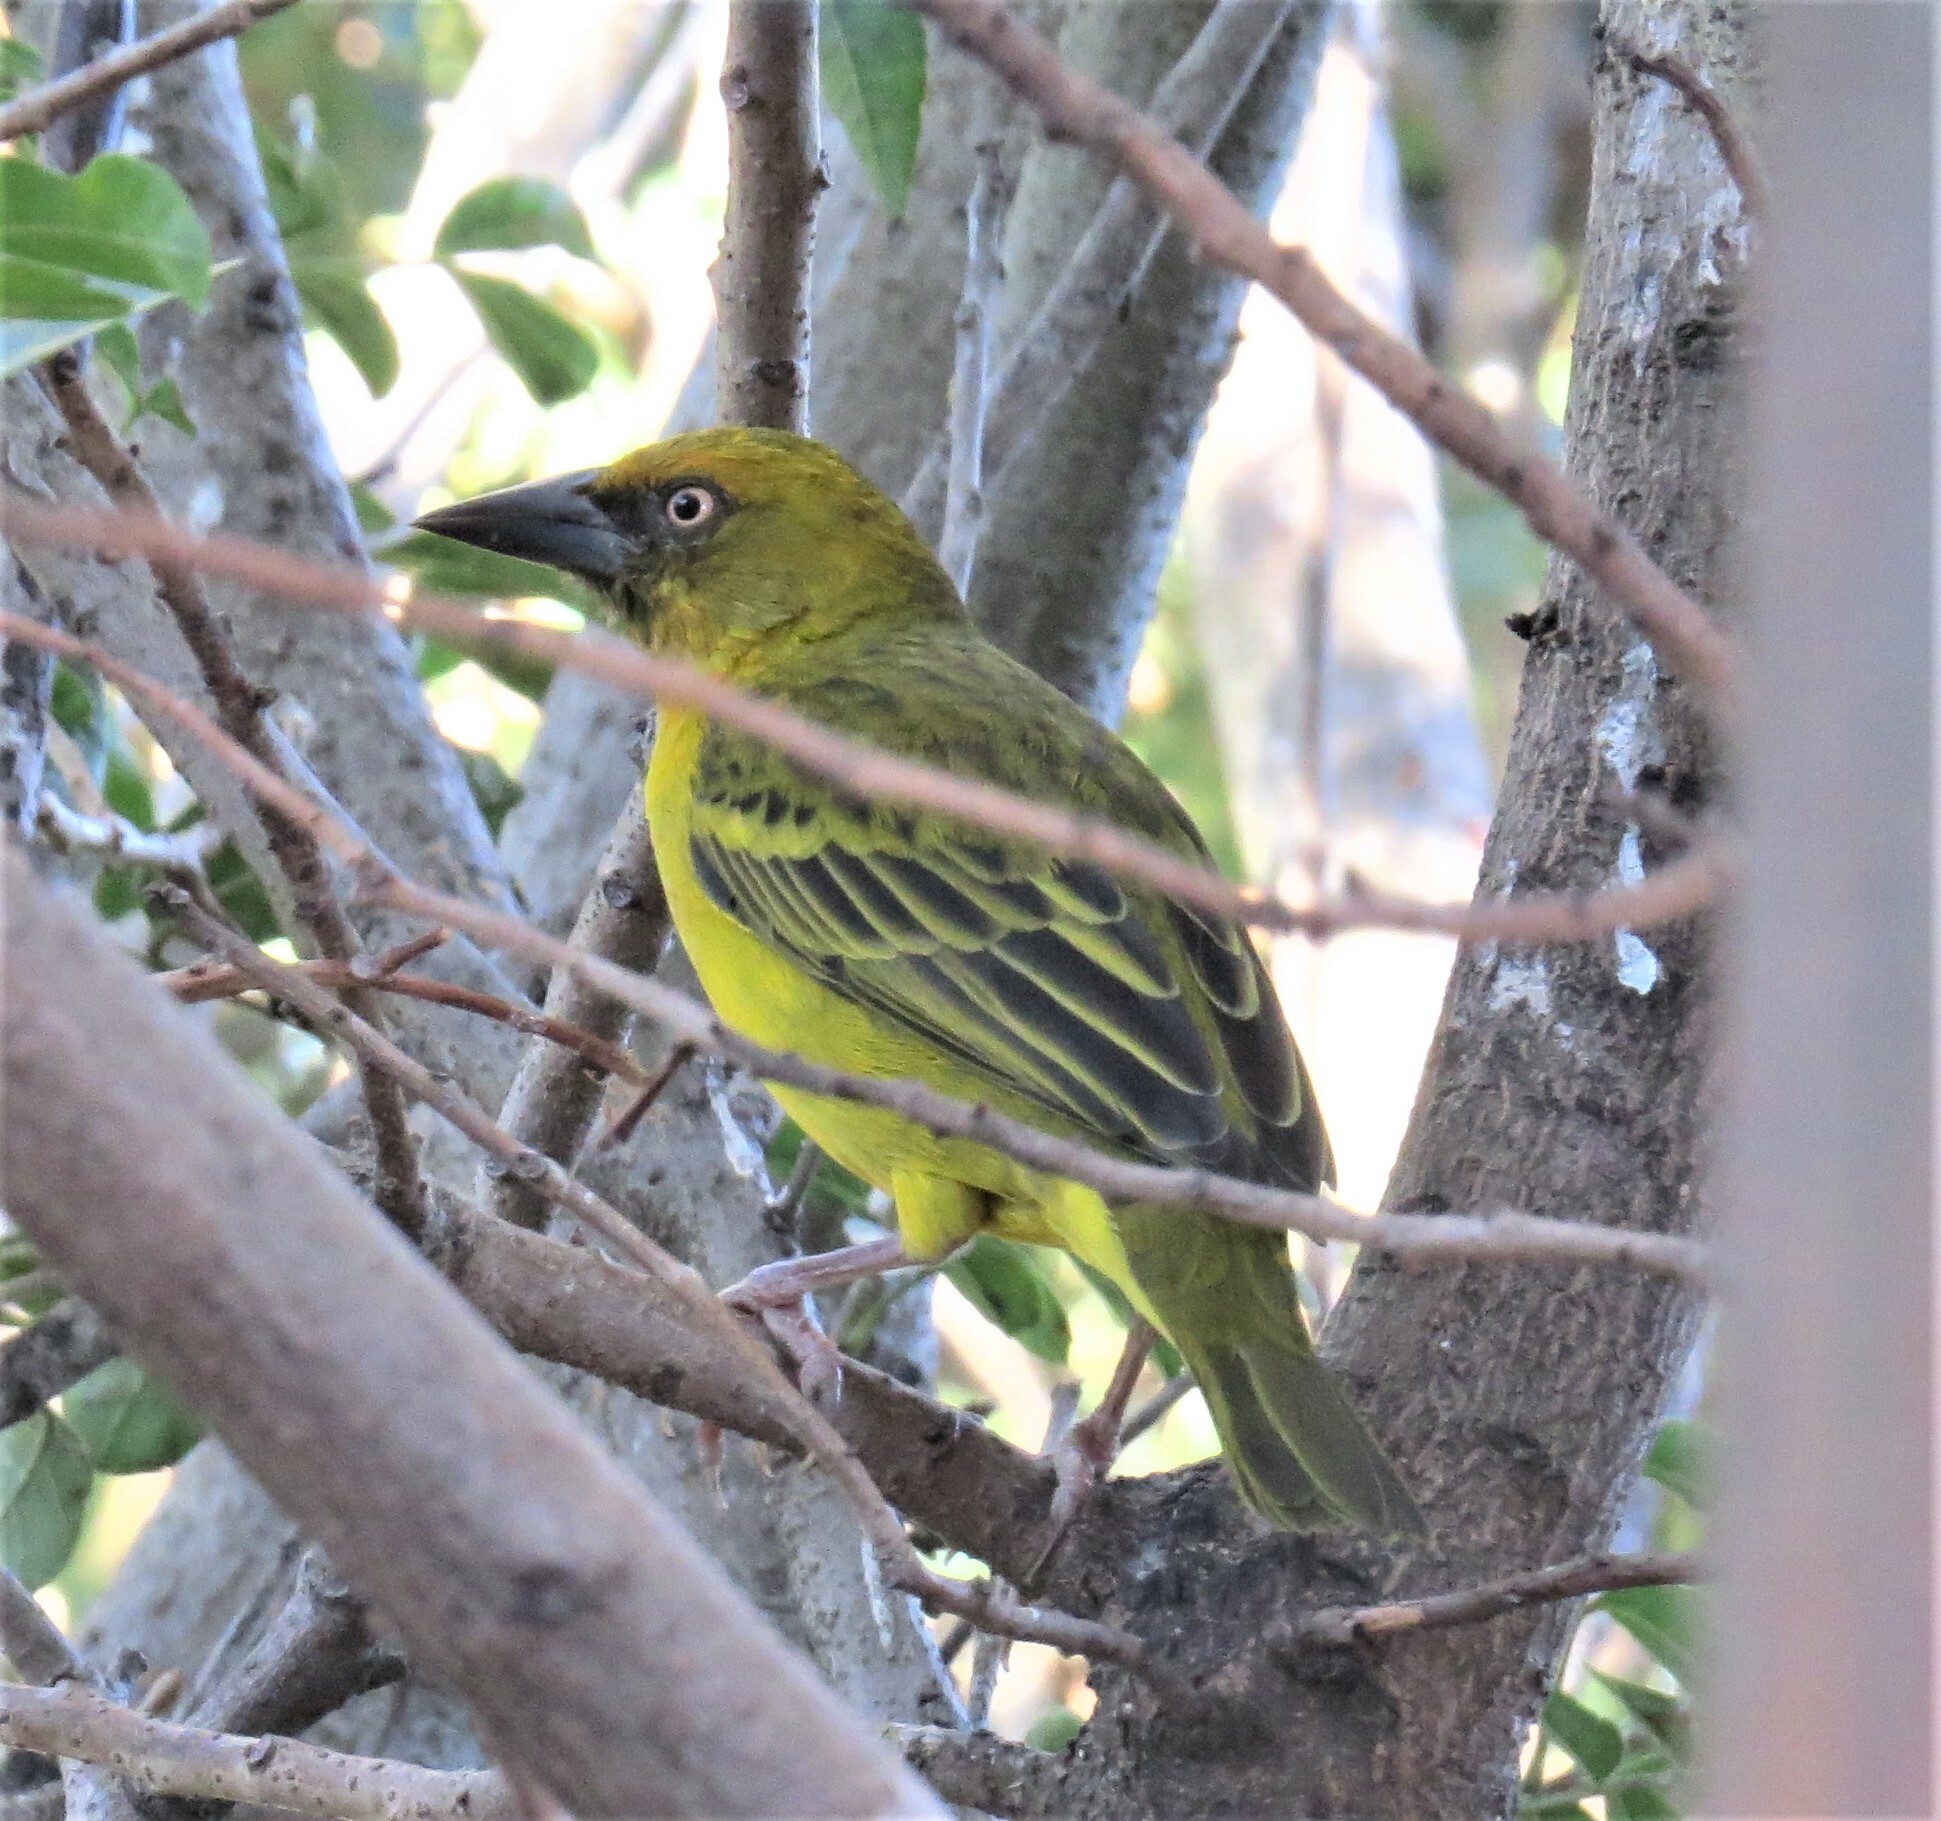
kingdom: Animalia
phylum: Chordata
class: Aves
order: Passeriformes
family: Ploceidae
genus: Ploceus
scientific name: Ploceus capensis
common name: Cape weaver
